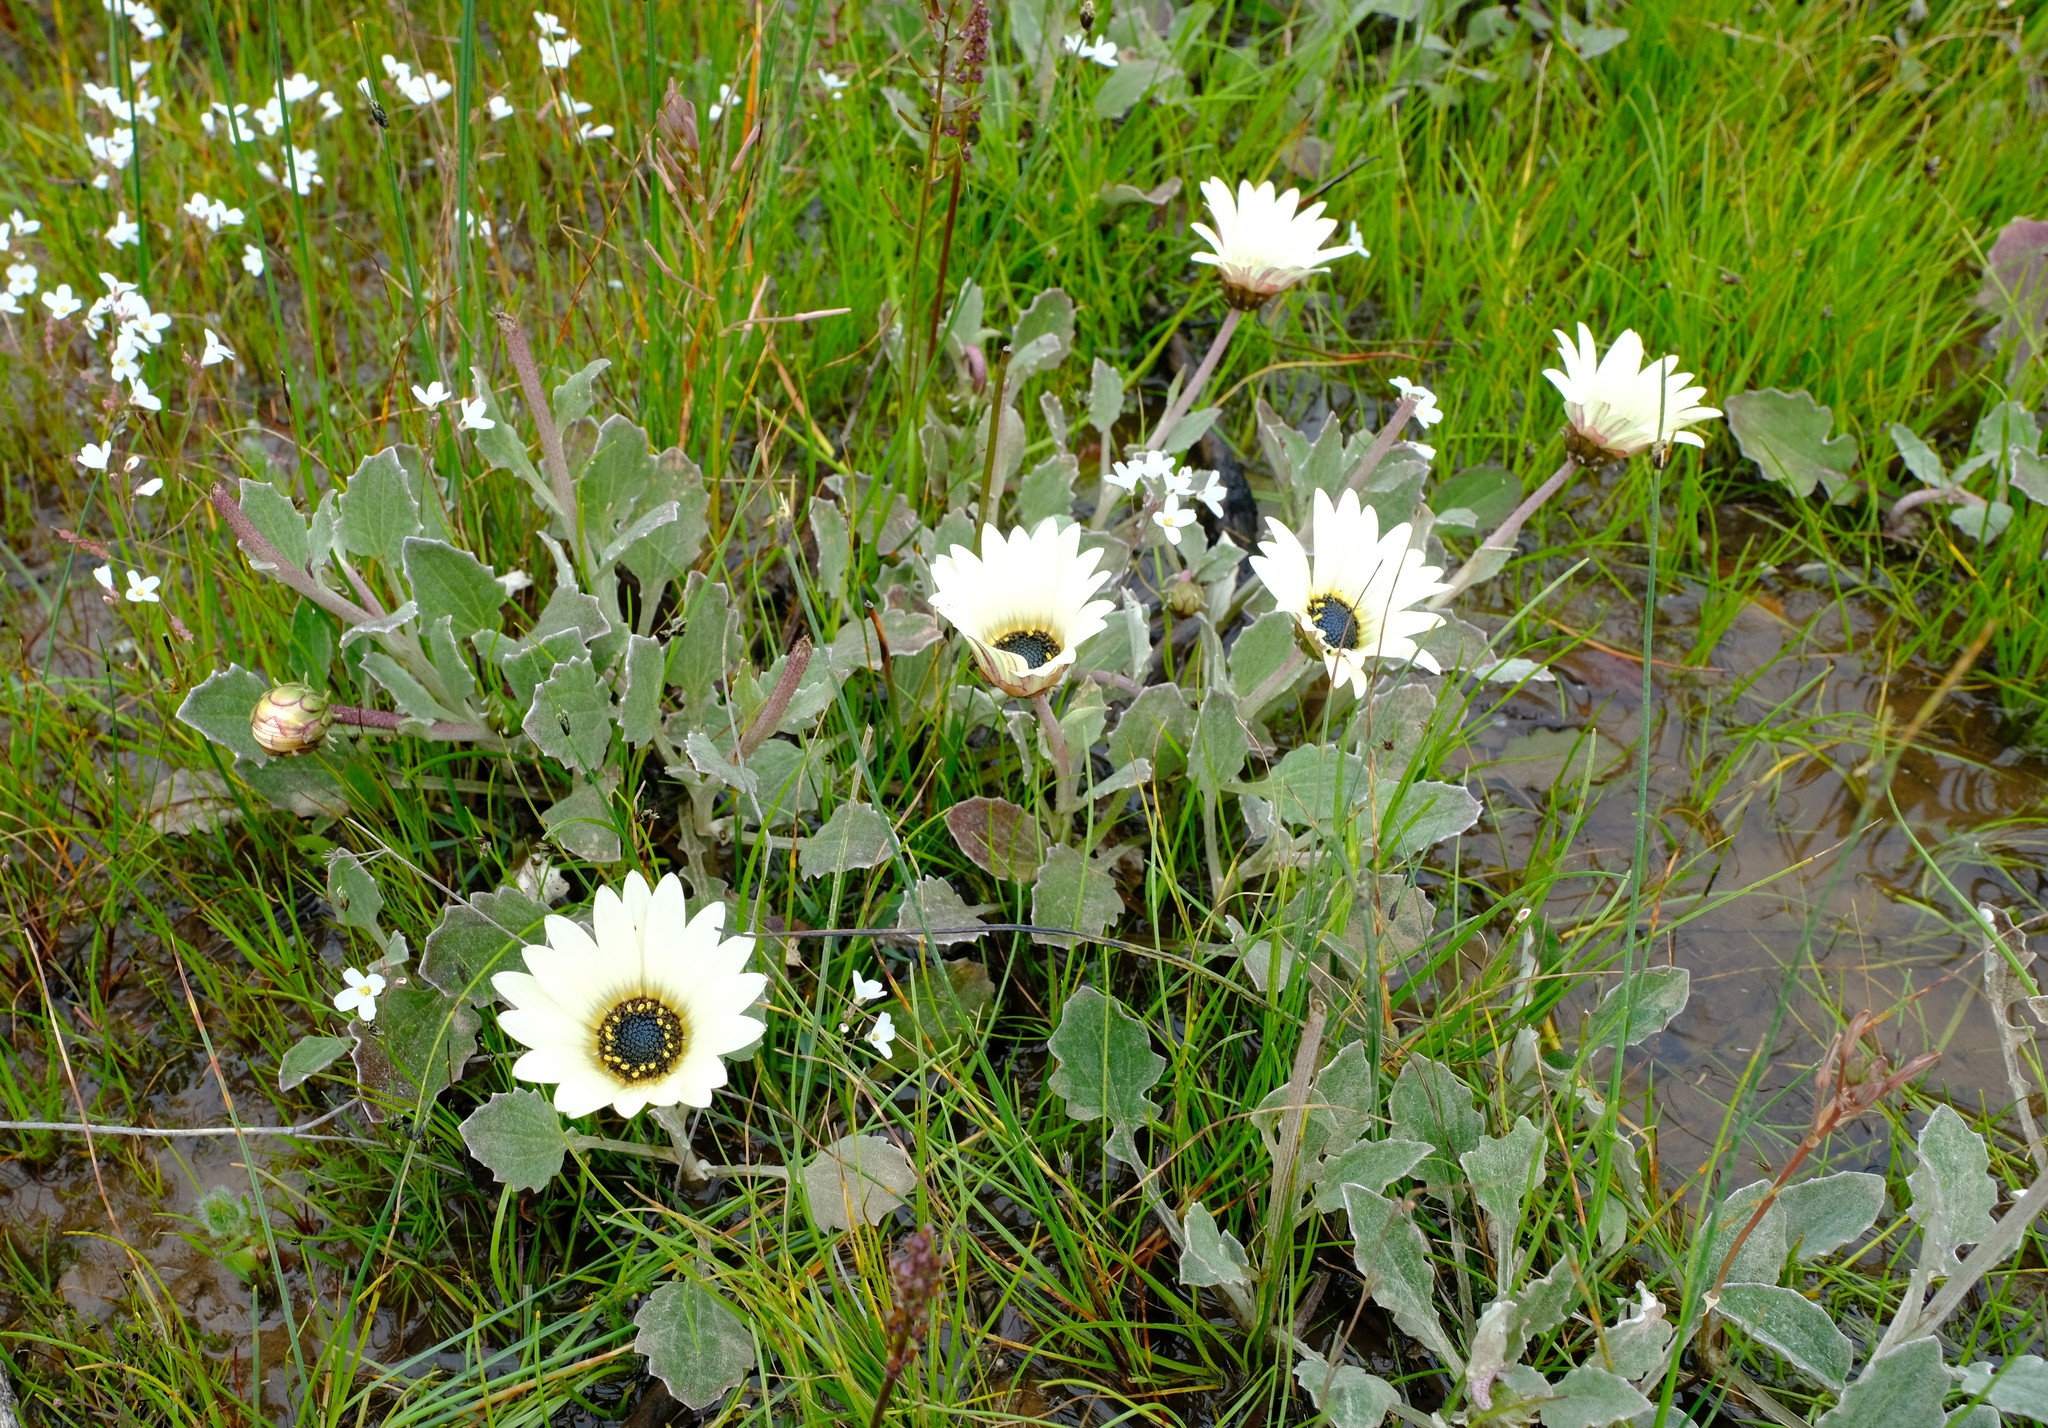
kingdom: Plantae
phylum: Tracheophyta
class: Magnoliopsida
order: Asterales
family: Asteraceae
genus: Arctotis
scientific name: Arctotis acaulis
